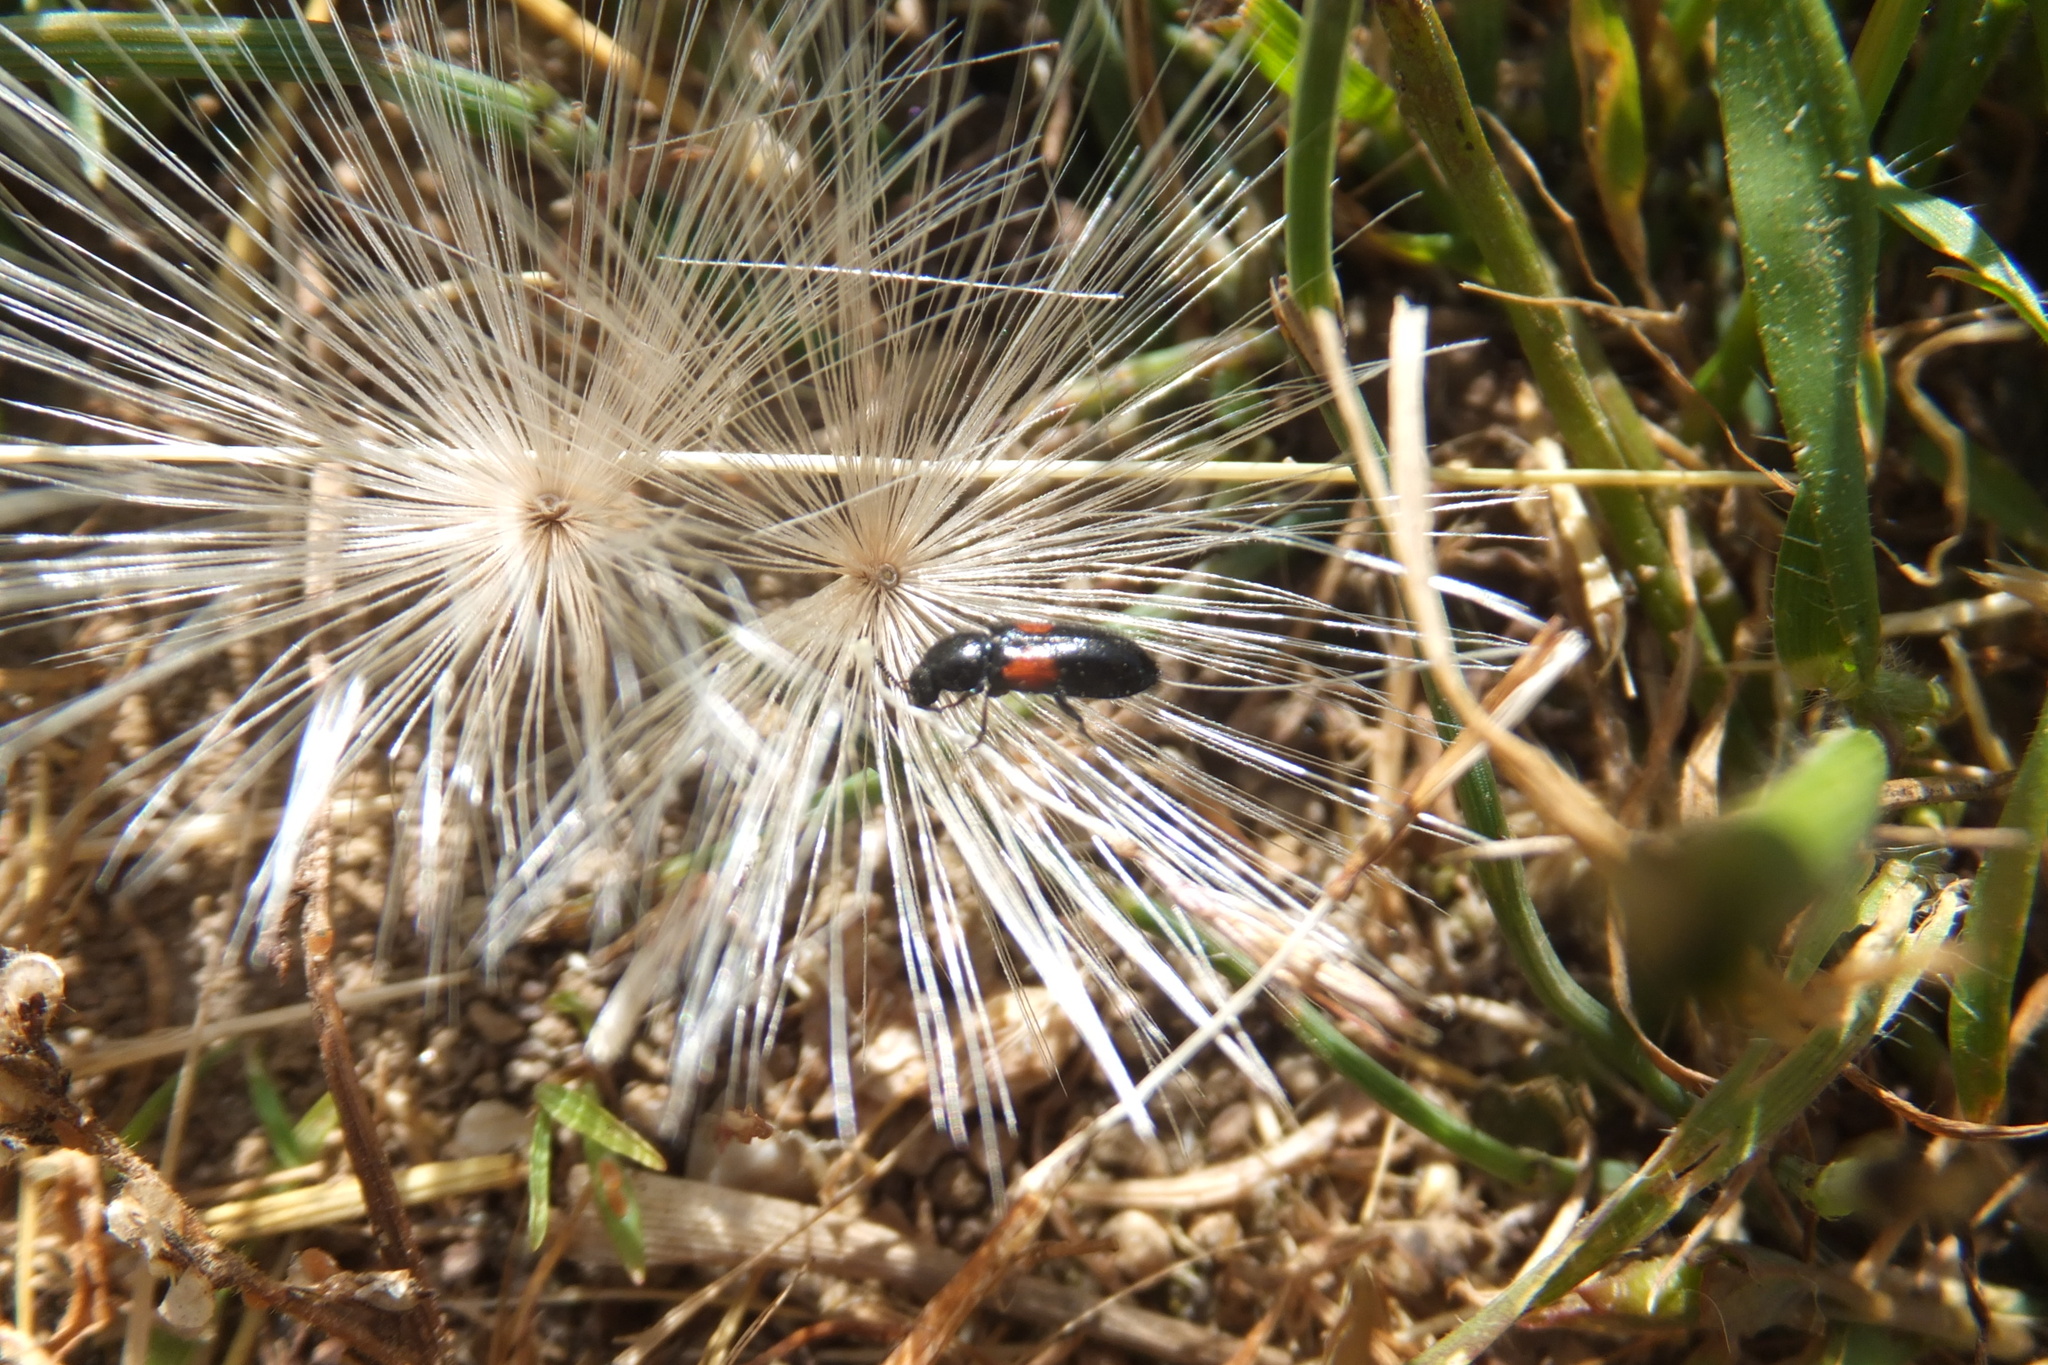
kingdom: Animalia
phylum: Arthropoda
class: Insecta
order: Coleoptera
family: Melyridae
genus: Divales
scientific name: Divales bipustulatus
